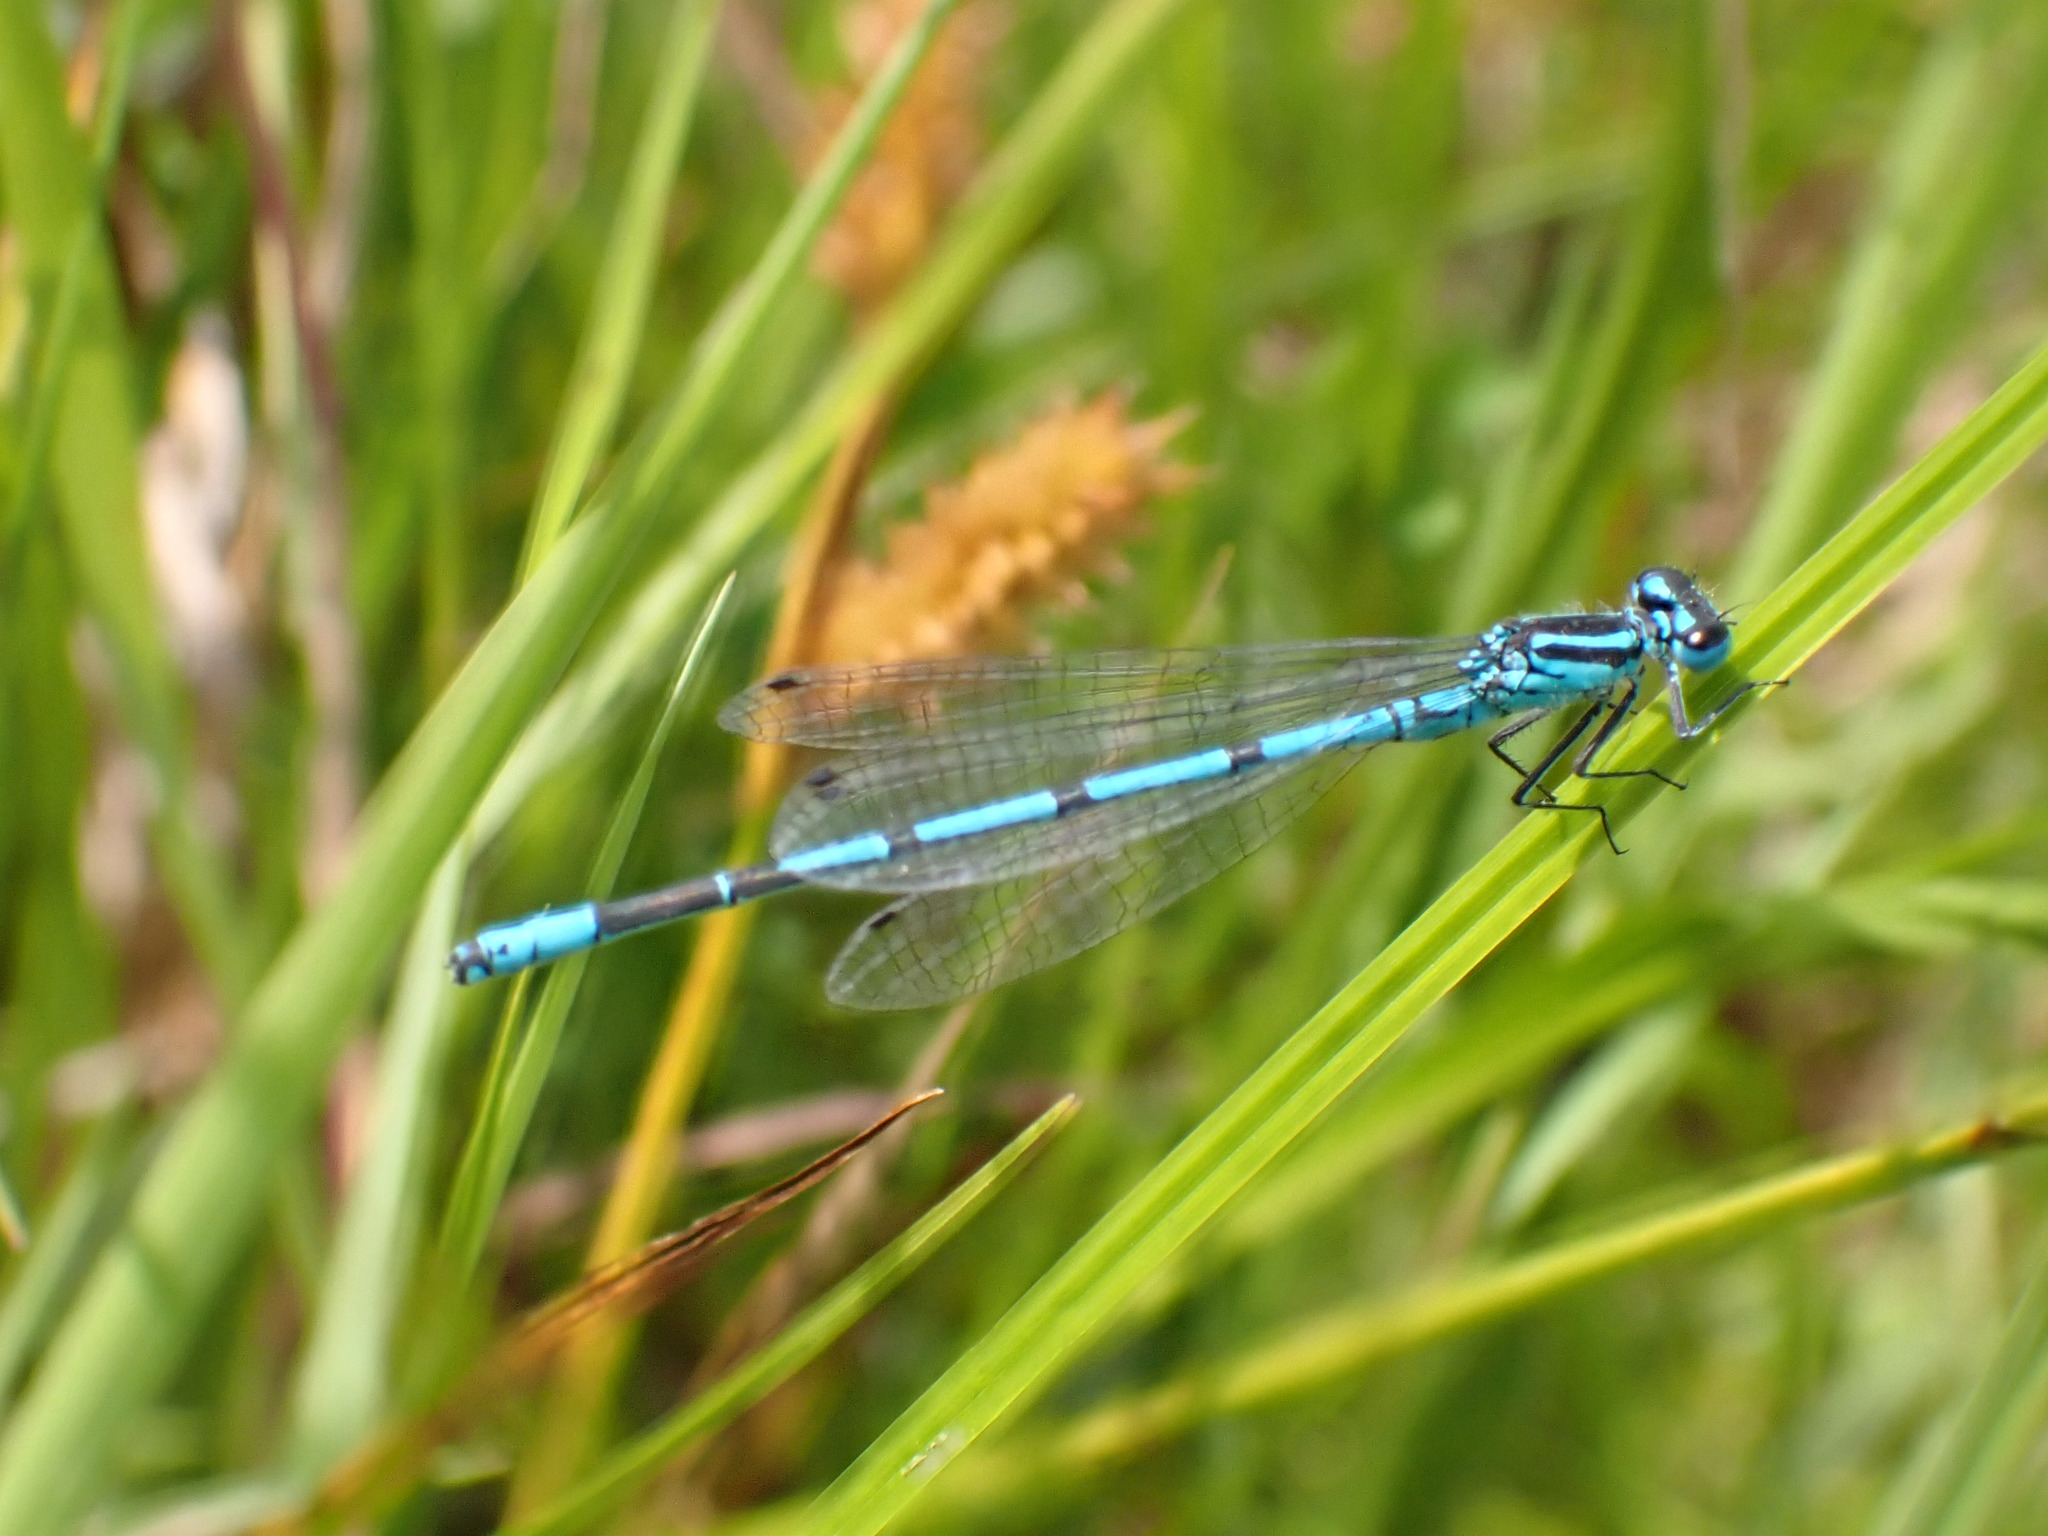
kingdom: Animalia
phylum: Arthropoda
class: Insecta
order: Odonata
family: Coenagrionidae
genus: Coenagrion
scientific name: Coenagrion puella
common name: Azure damselfly
